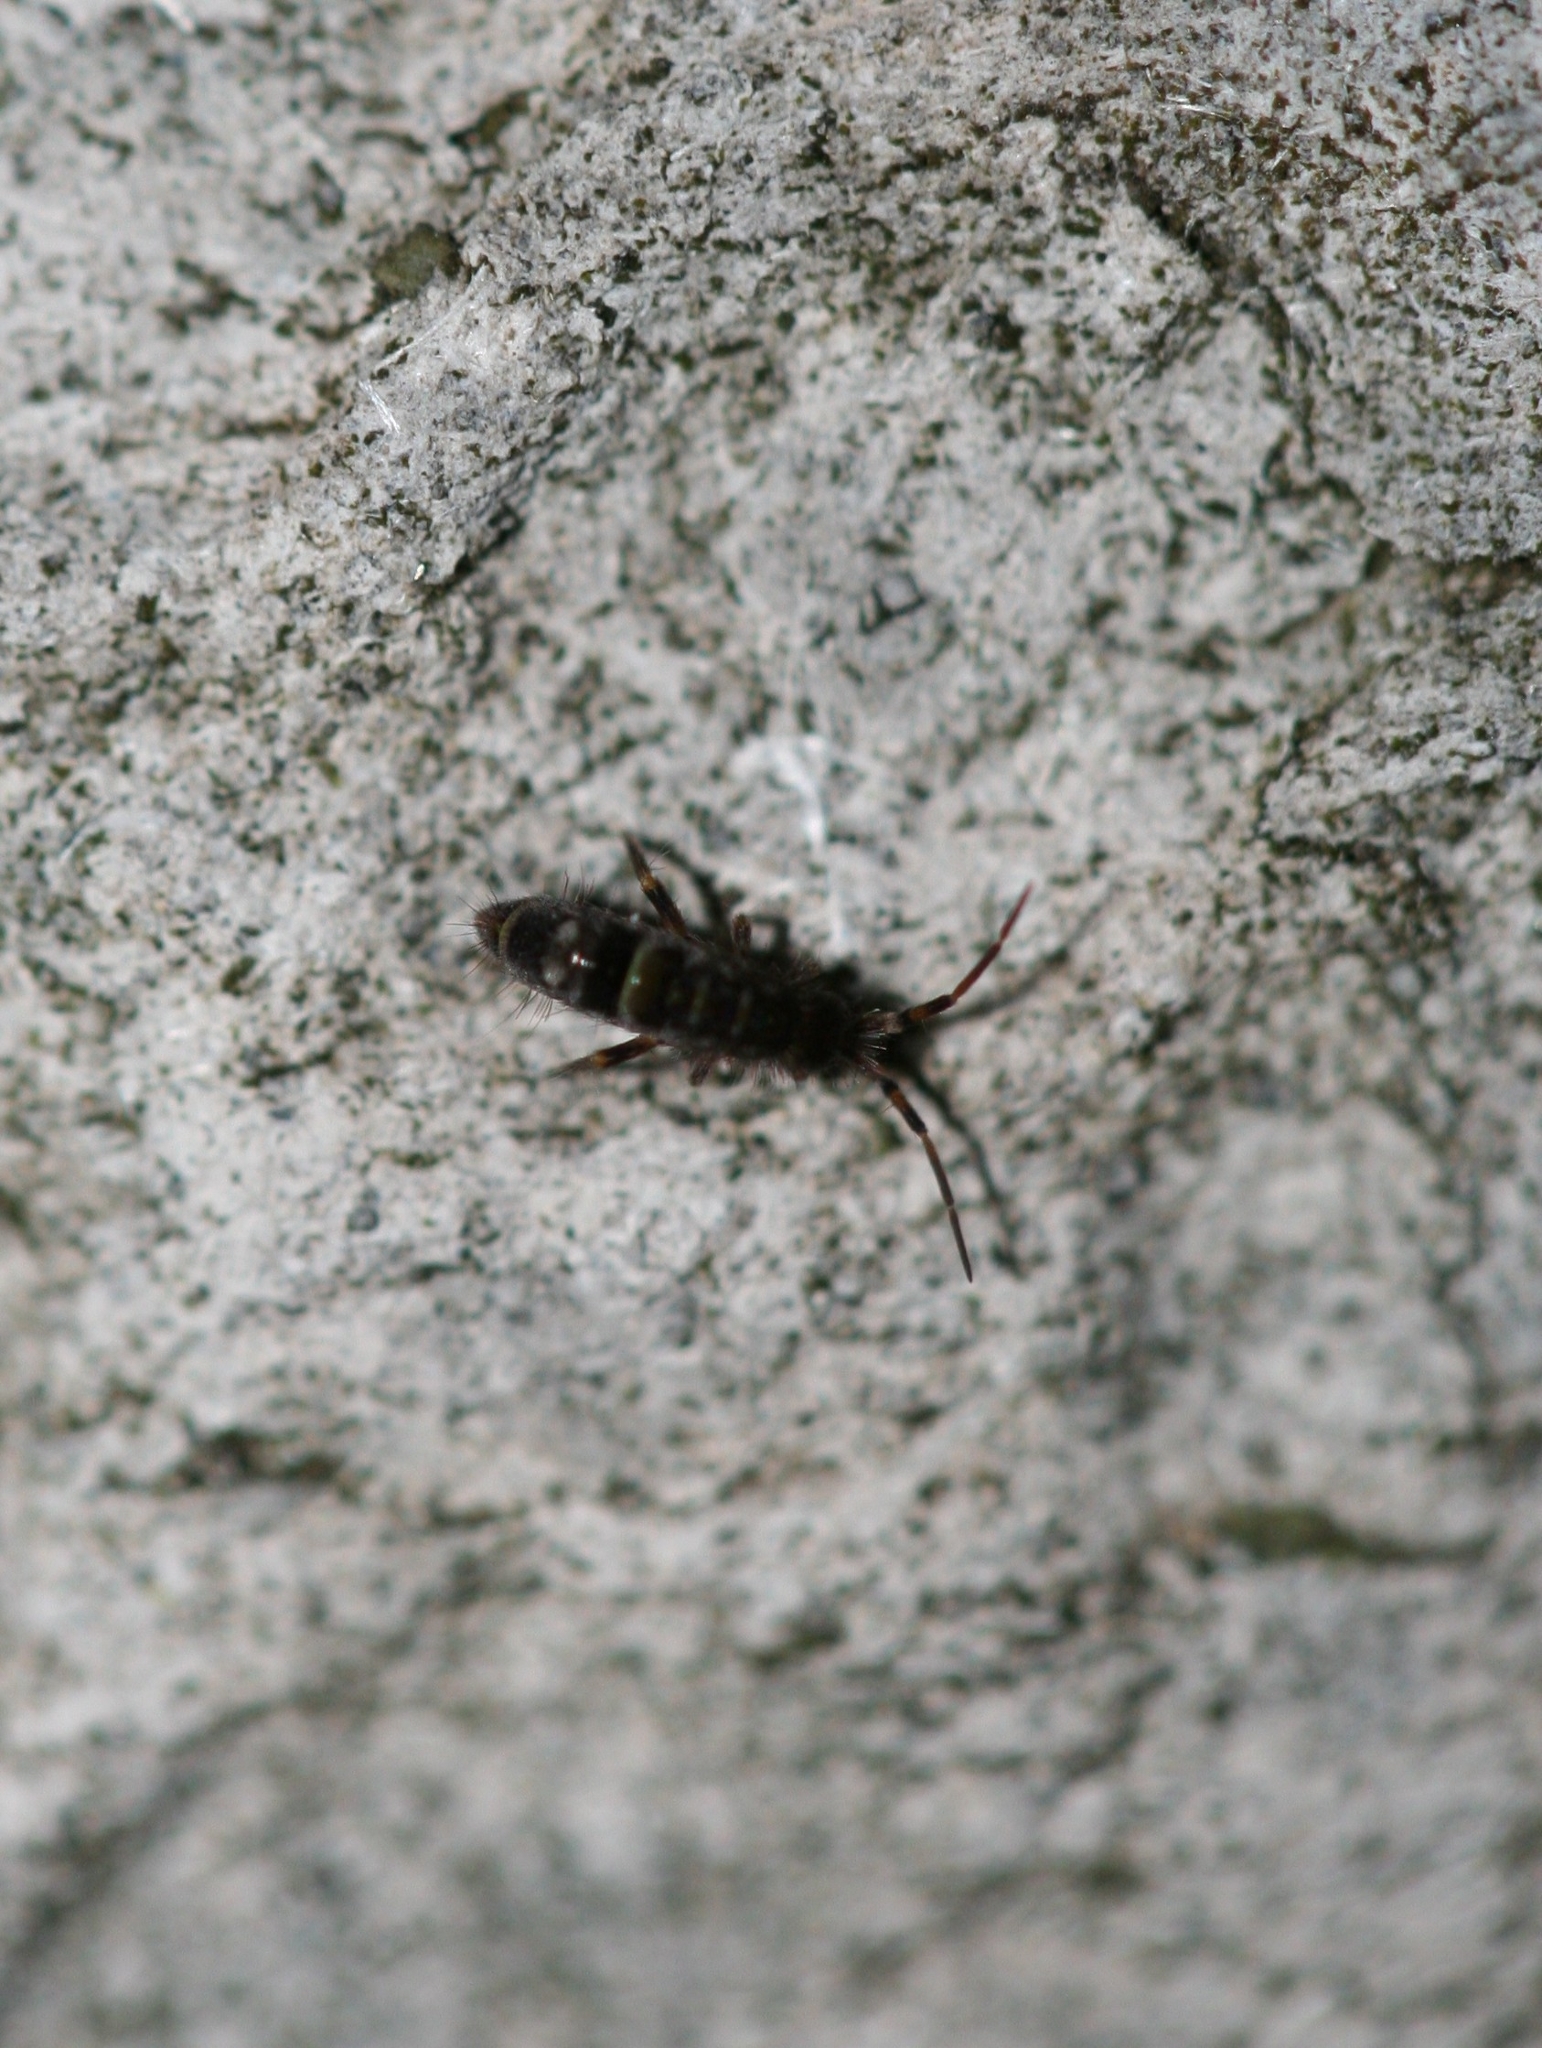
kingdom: Animalia
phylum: Arthropoda
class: Collembola
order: Entomobryomorpha
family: Orchesellidae
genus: Orchesella
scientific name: Orchesella cincta
